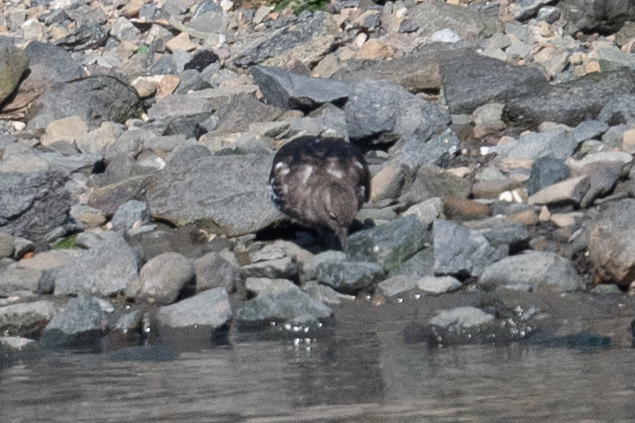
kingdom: Animalia
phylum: Chordata
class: Aves
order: Charadriiformes
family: Scolopacidae
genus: Arenaria
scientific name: Arenaria melanocephala
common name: Black turnstone
